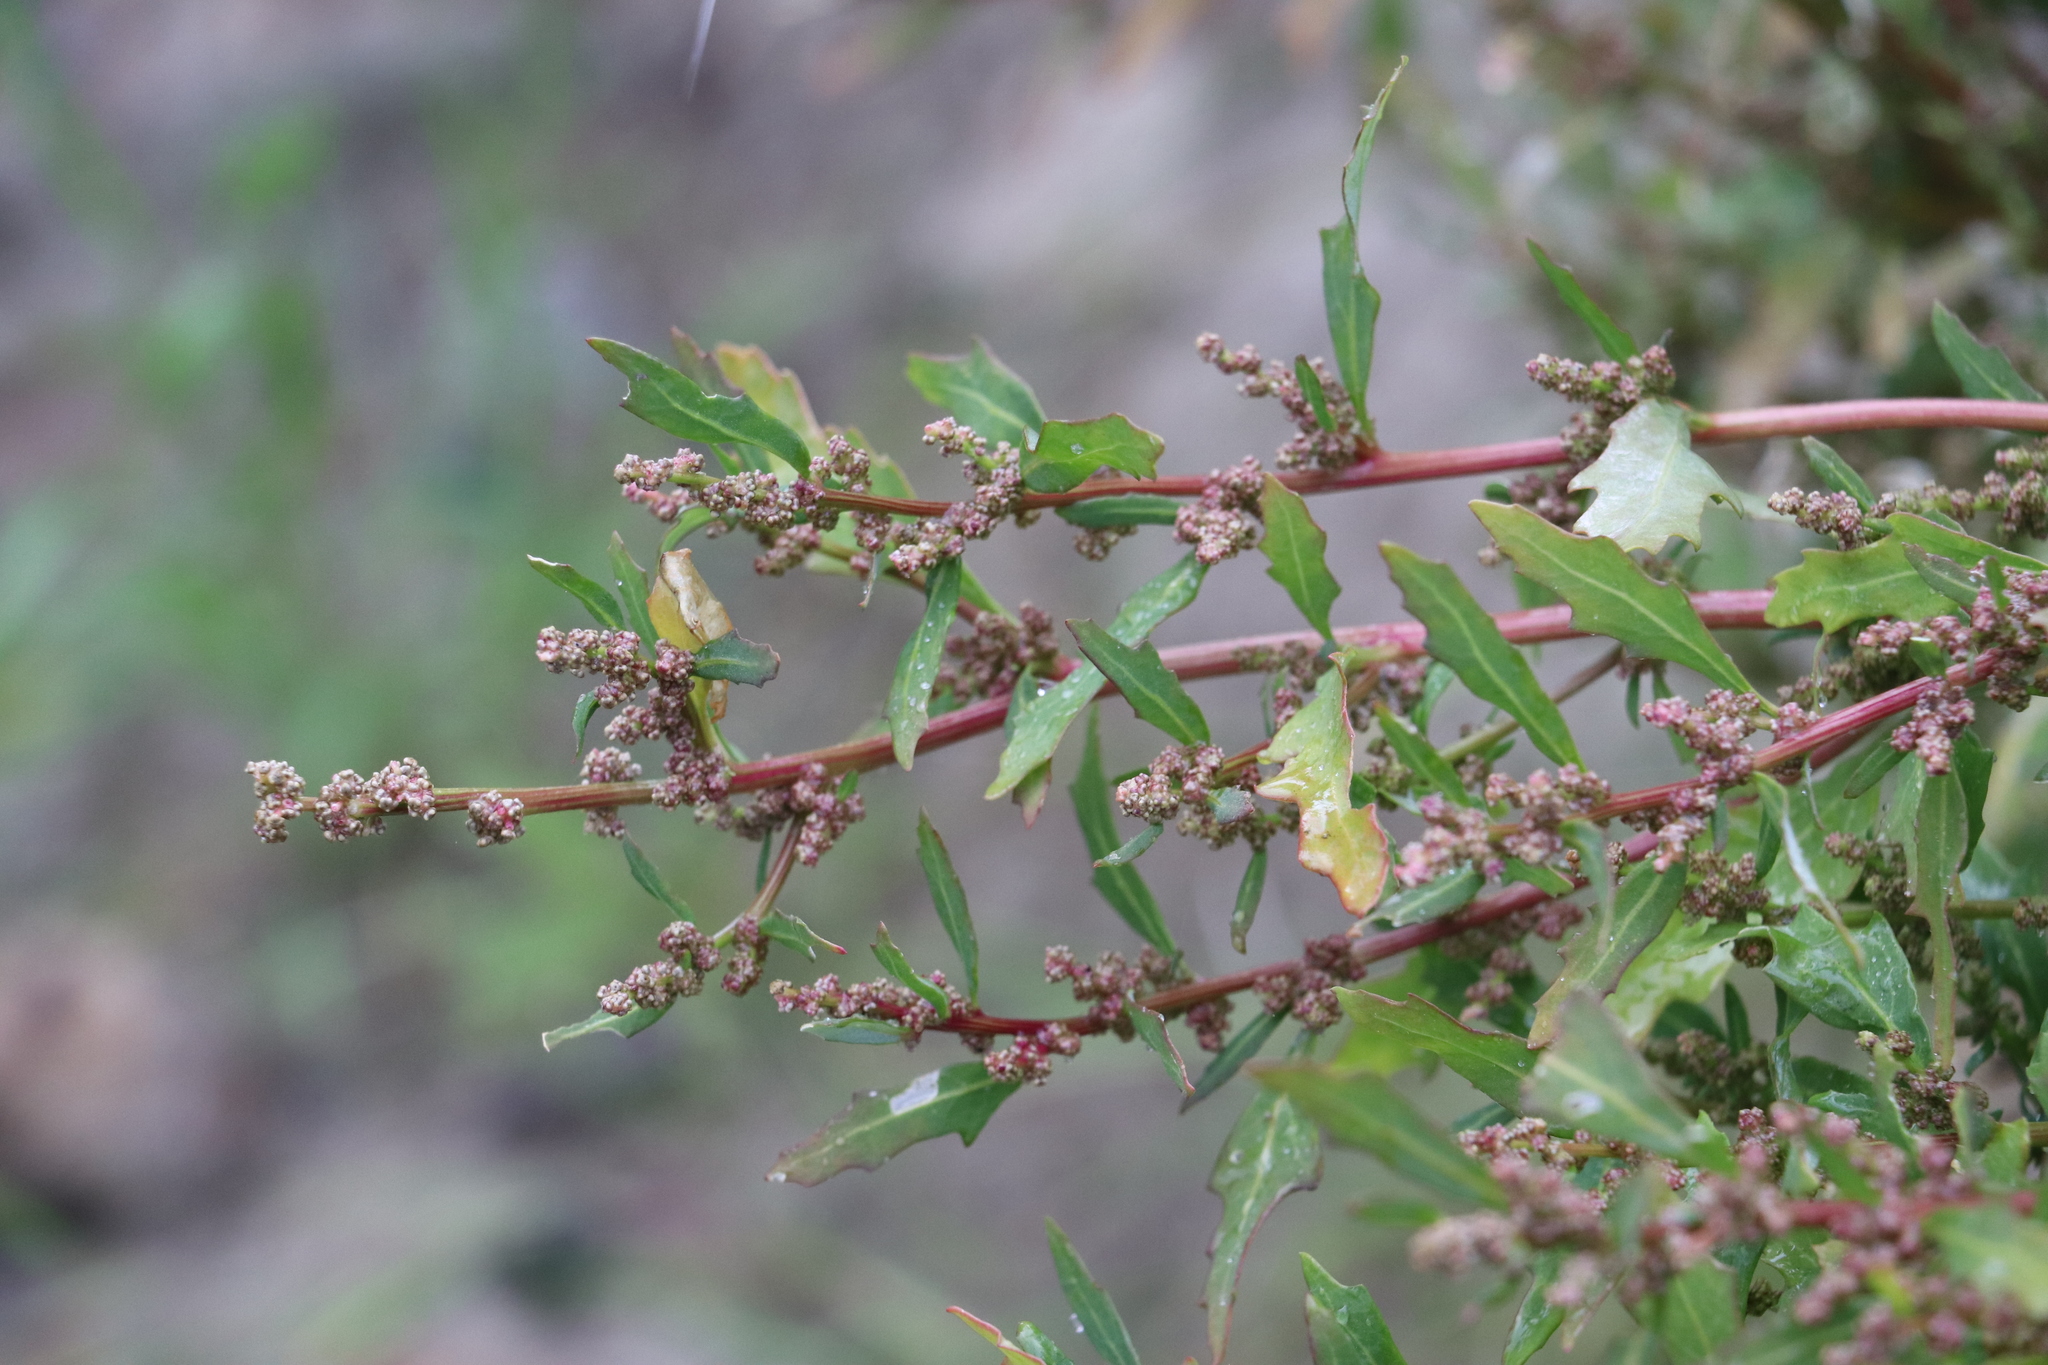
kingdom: Plantae
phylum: Tracheophyta
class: Magnoliopsida
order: Caryophyllales
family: Amaranthaceae
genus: Oxybasis
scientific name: Oxybasis glauca
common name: Glaucous goosefoot
